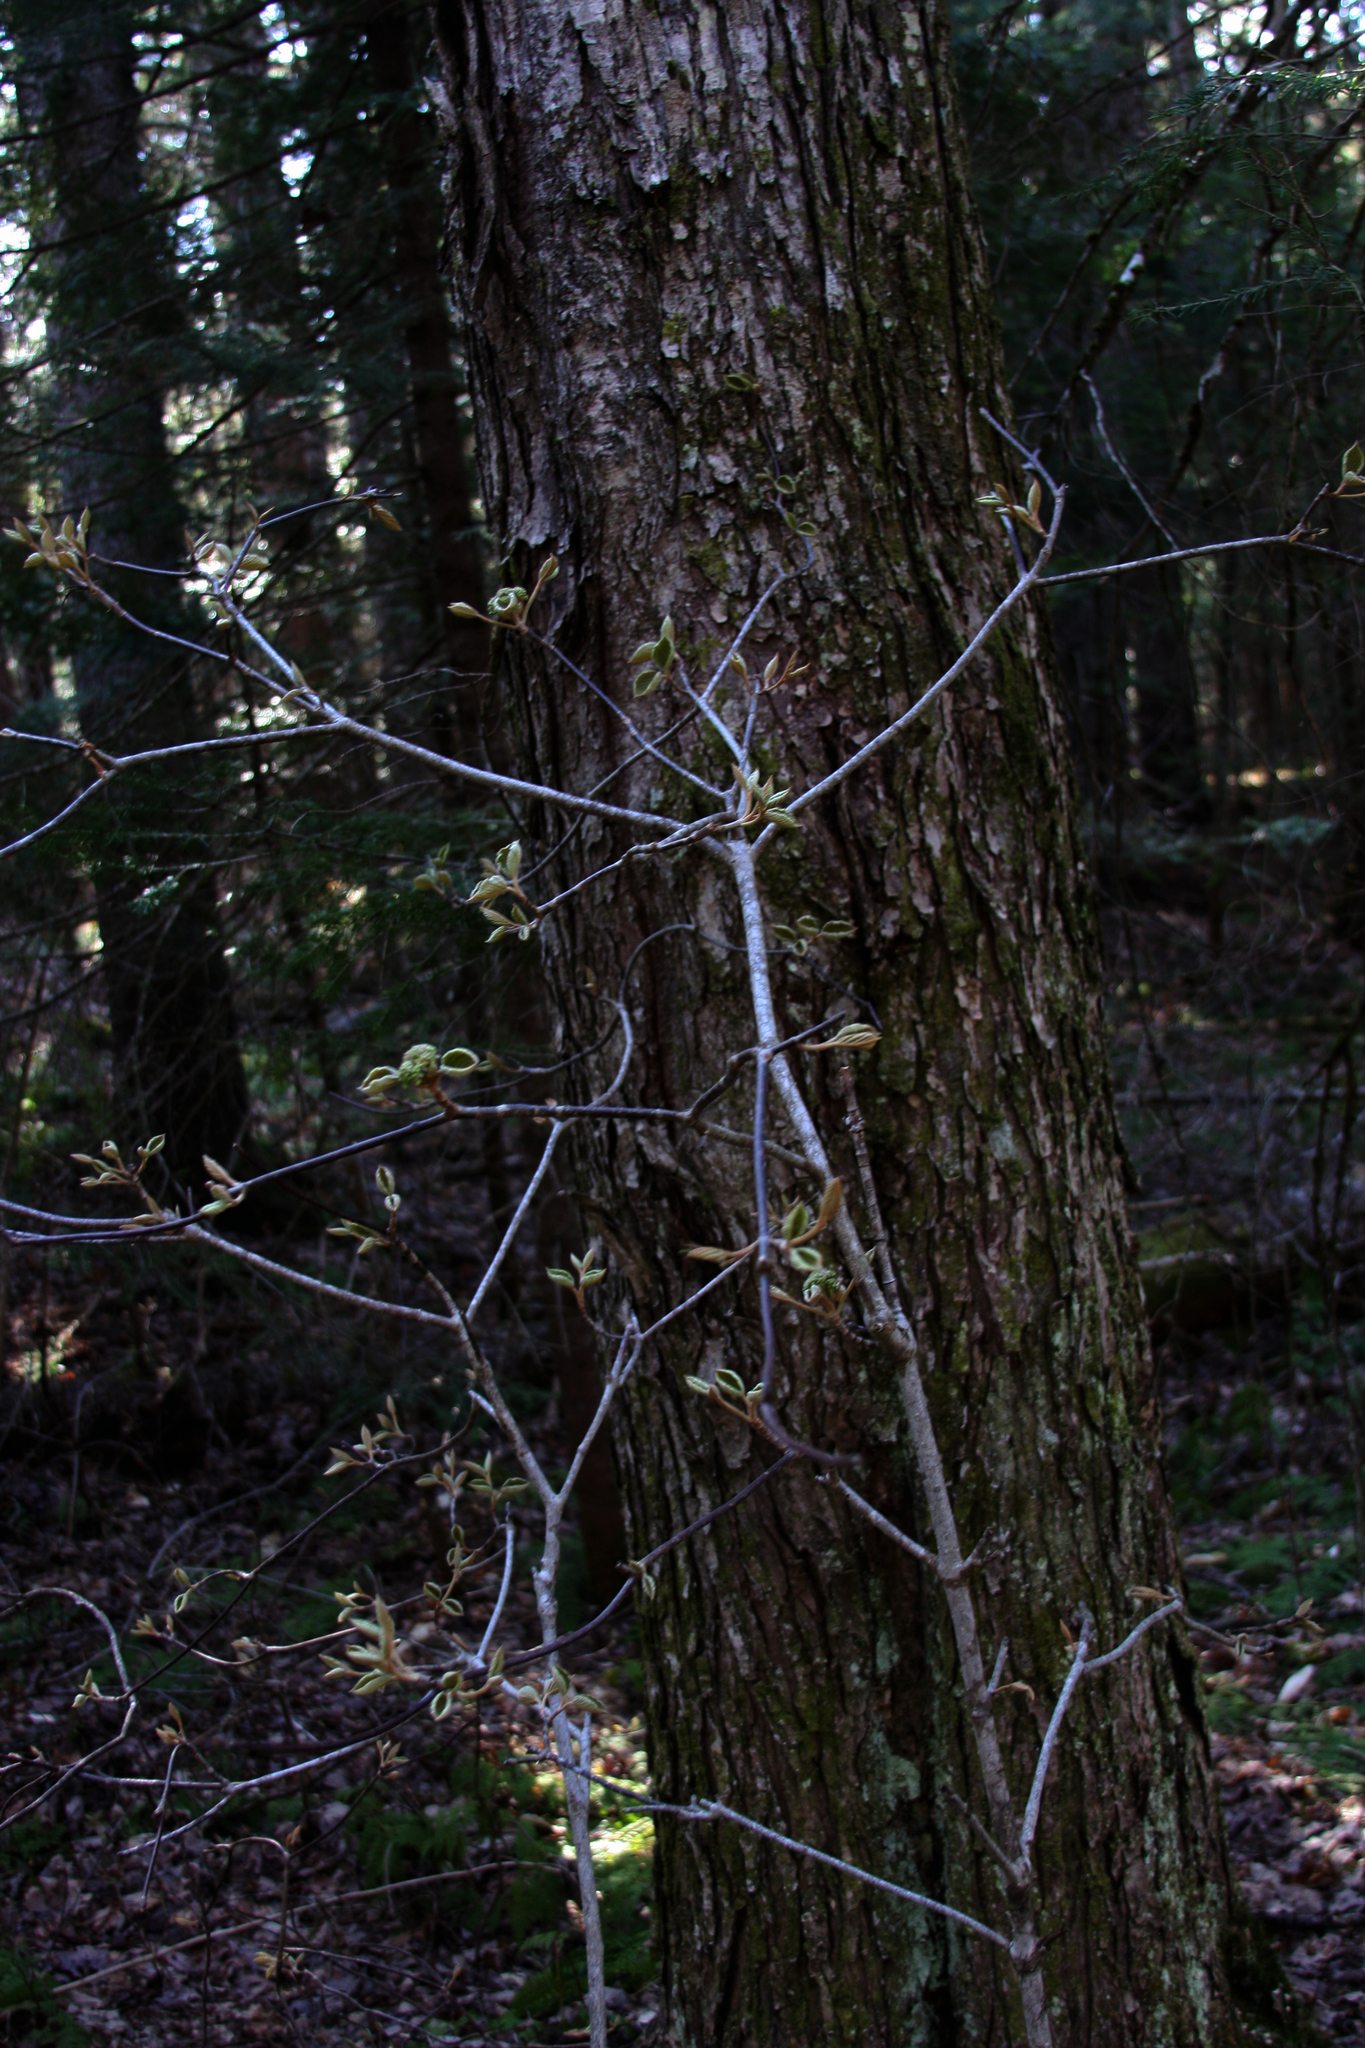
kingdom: Plantae
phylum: Tracheophyta
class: Magnoliopsida
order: Dipsacales
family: Viburnaceae
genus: Viburnum
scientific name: Viburnum lantanoides
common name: Hobblebush
